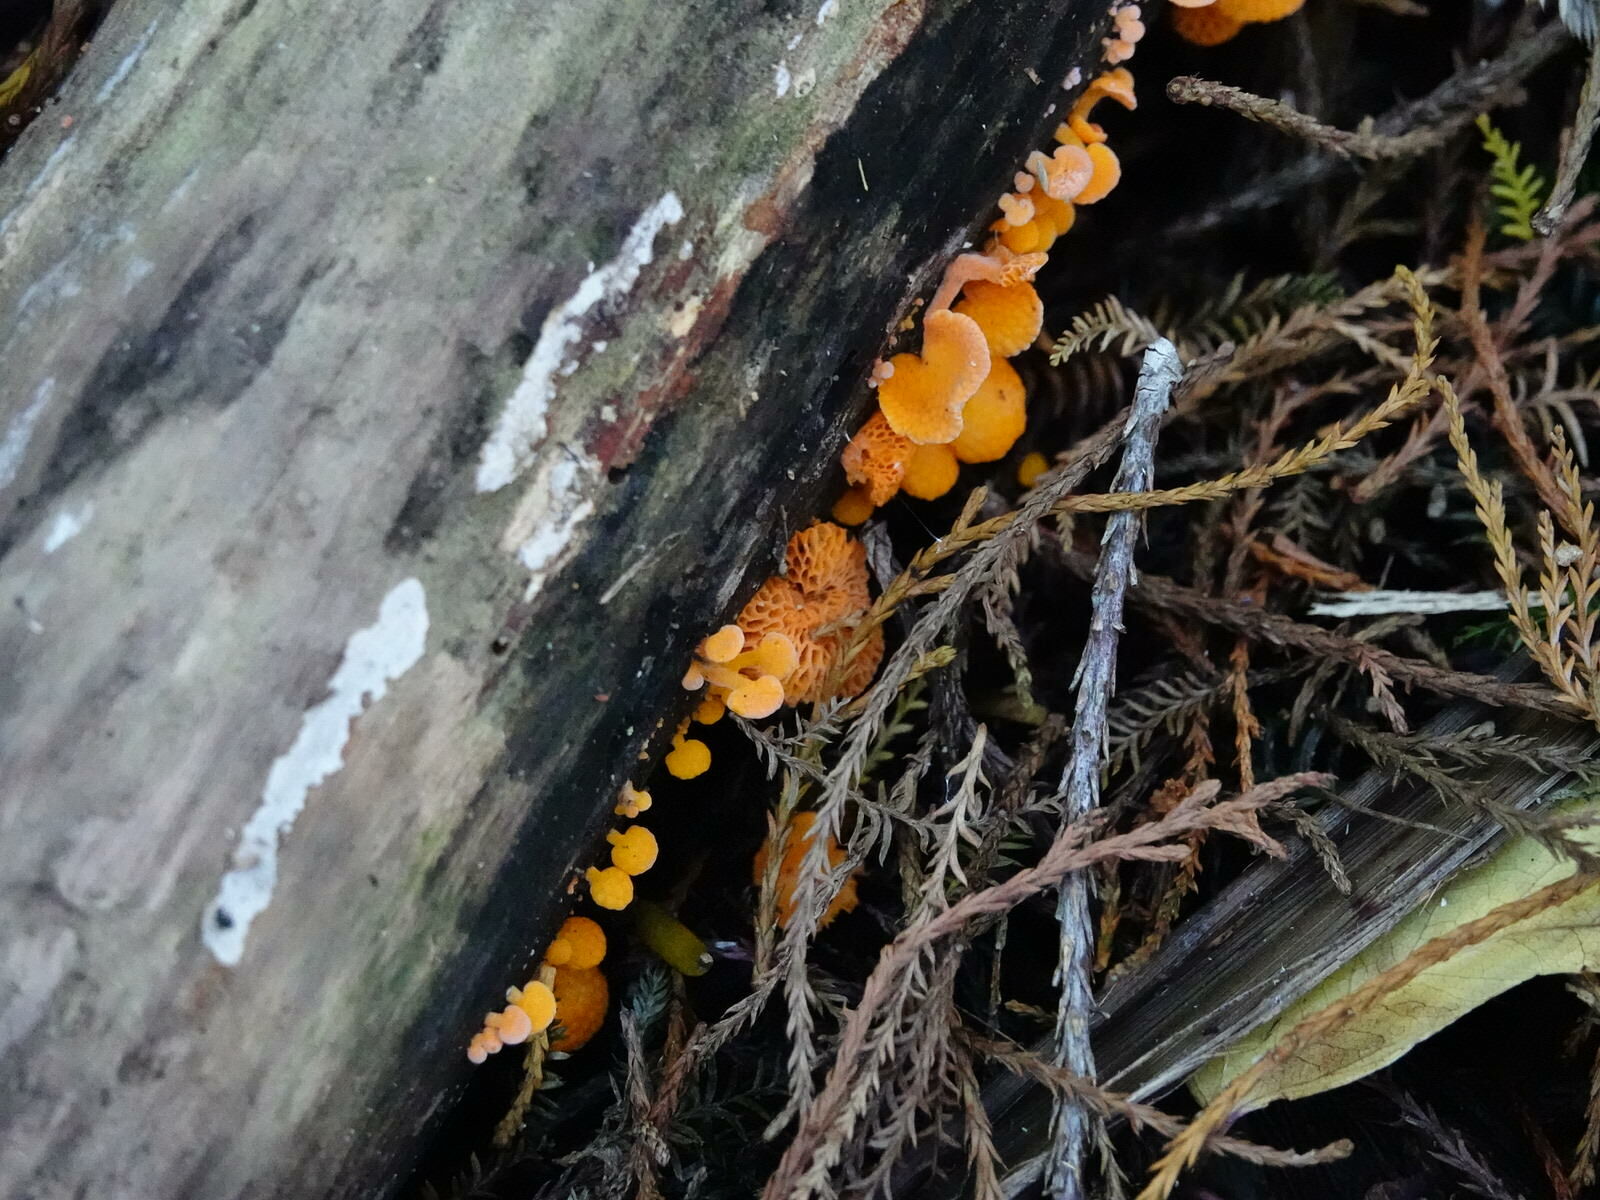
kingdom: Fungi
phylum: Basidiomycota
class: Agaricomycetes
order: Agaricales
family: Mycenaceae
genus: Favolaschia
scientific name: Favolaschia claudopus
